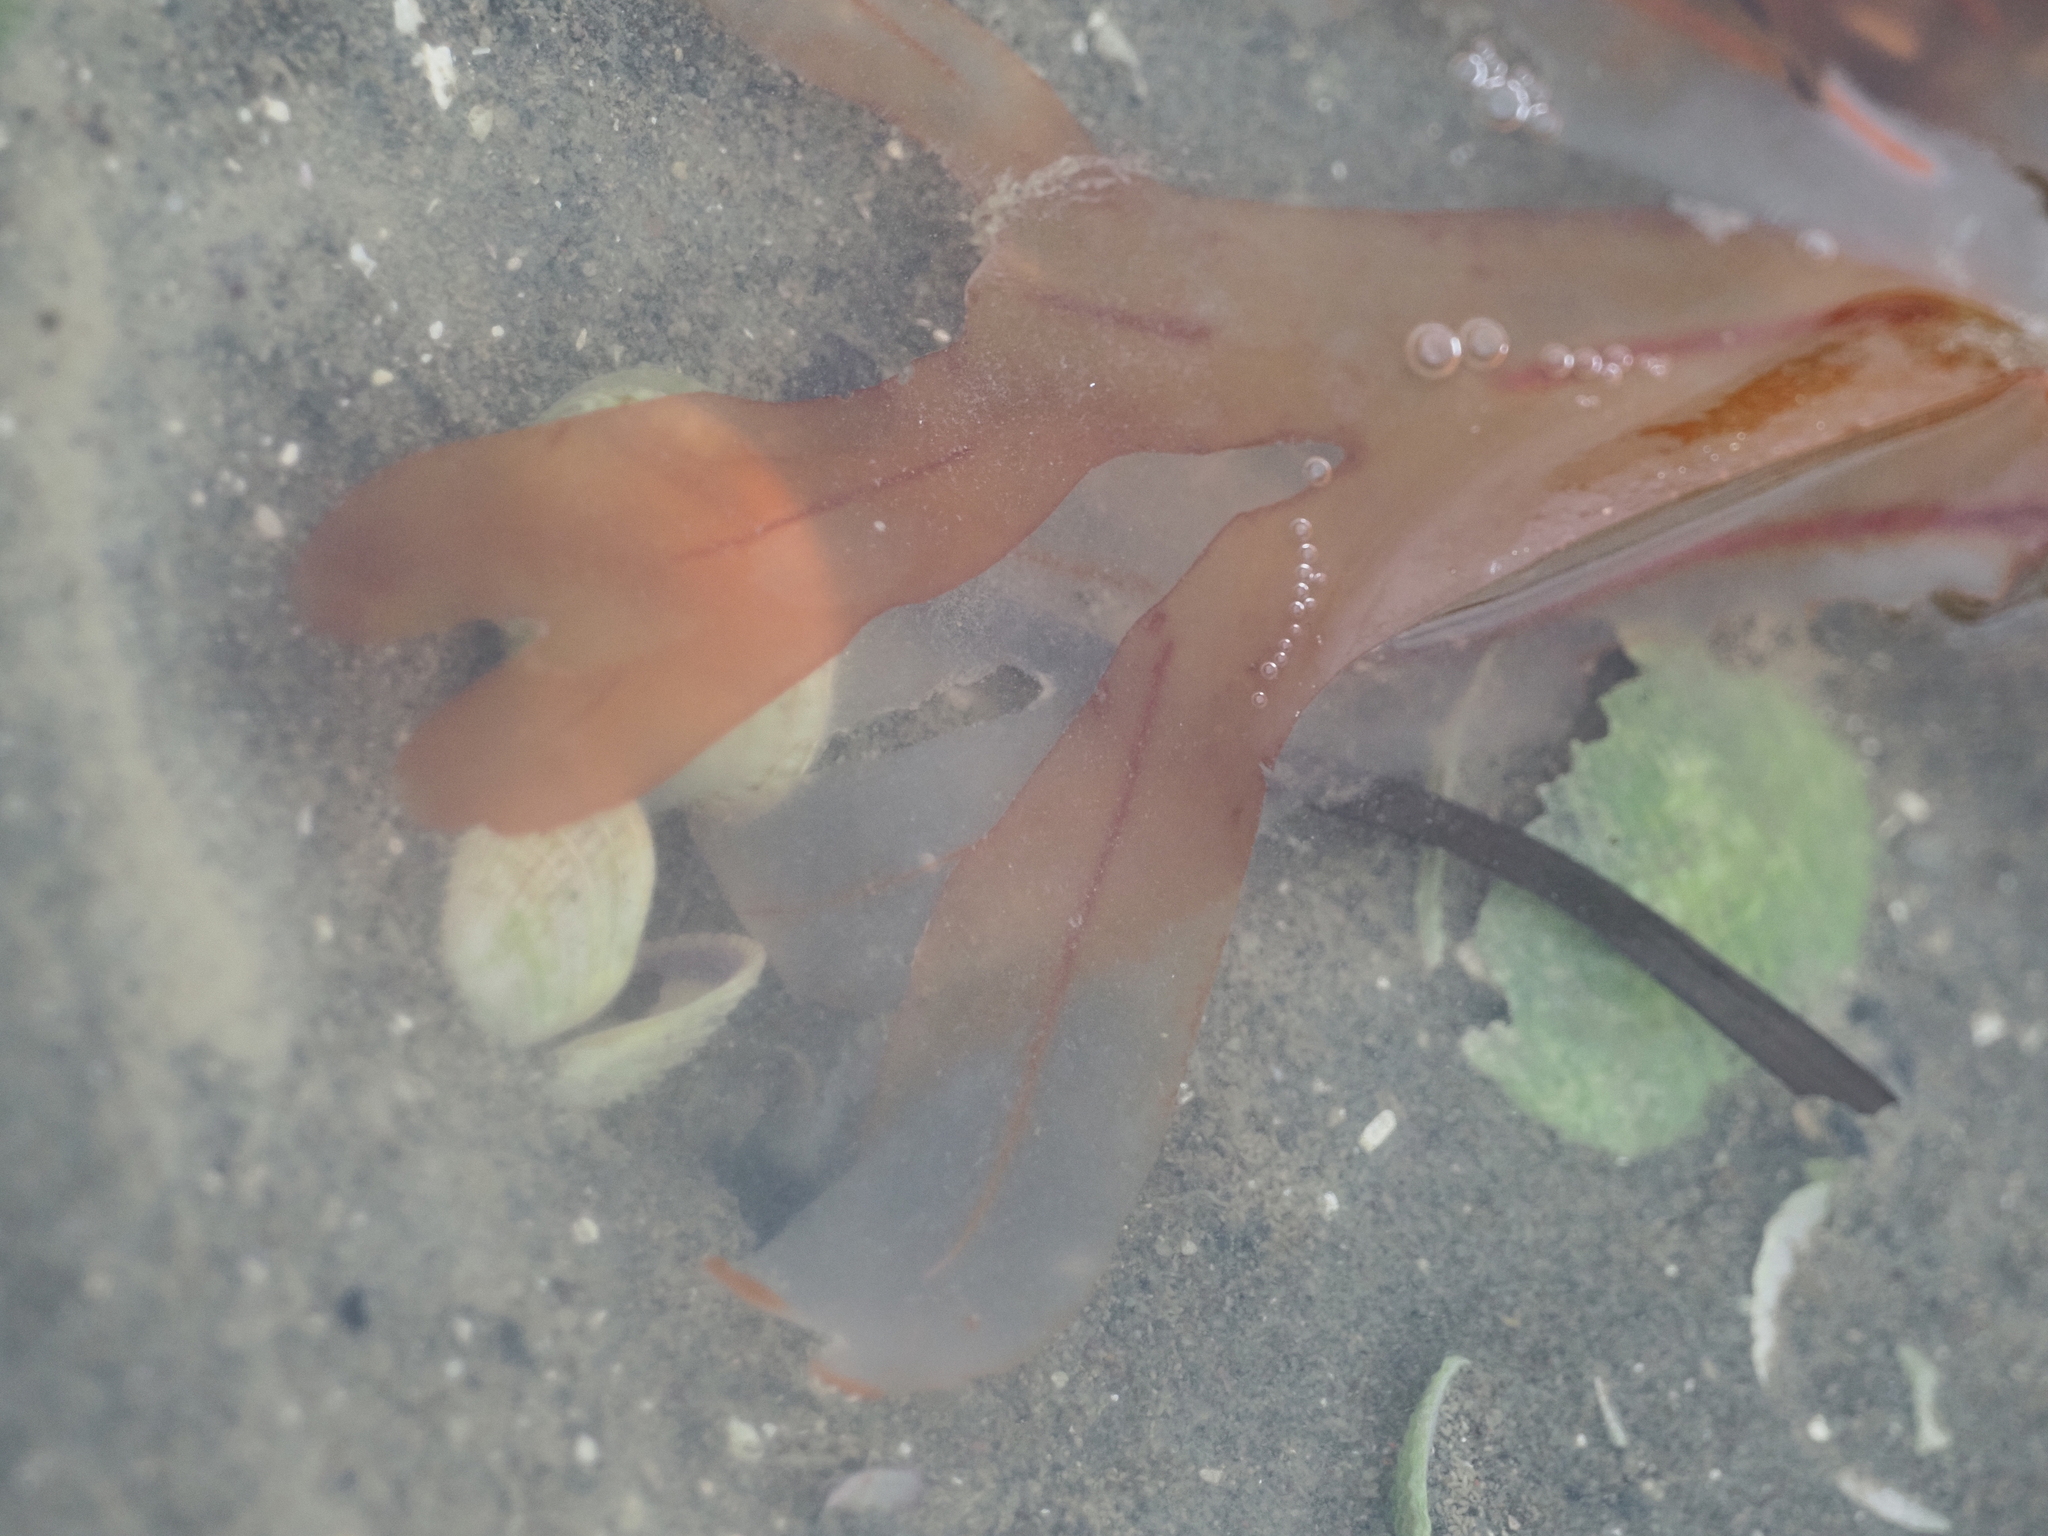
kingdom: Plantae
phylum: Rhodophyta
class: Florideophyceae
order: Gigartinales
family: Phyllophoraceae
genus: Stenogramma
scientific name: Stenogramma interruptum
